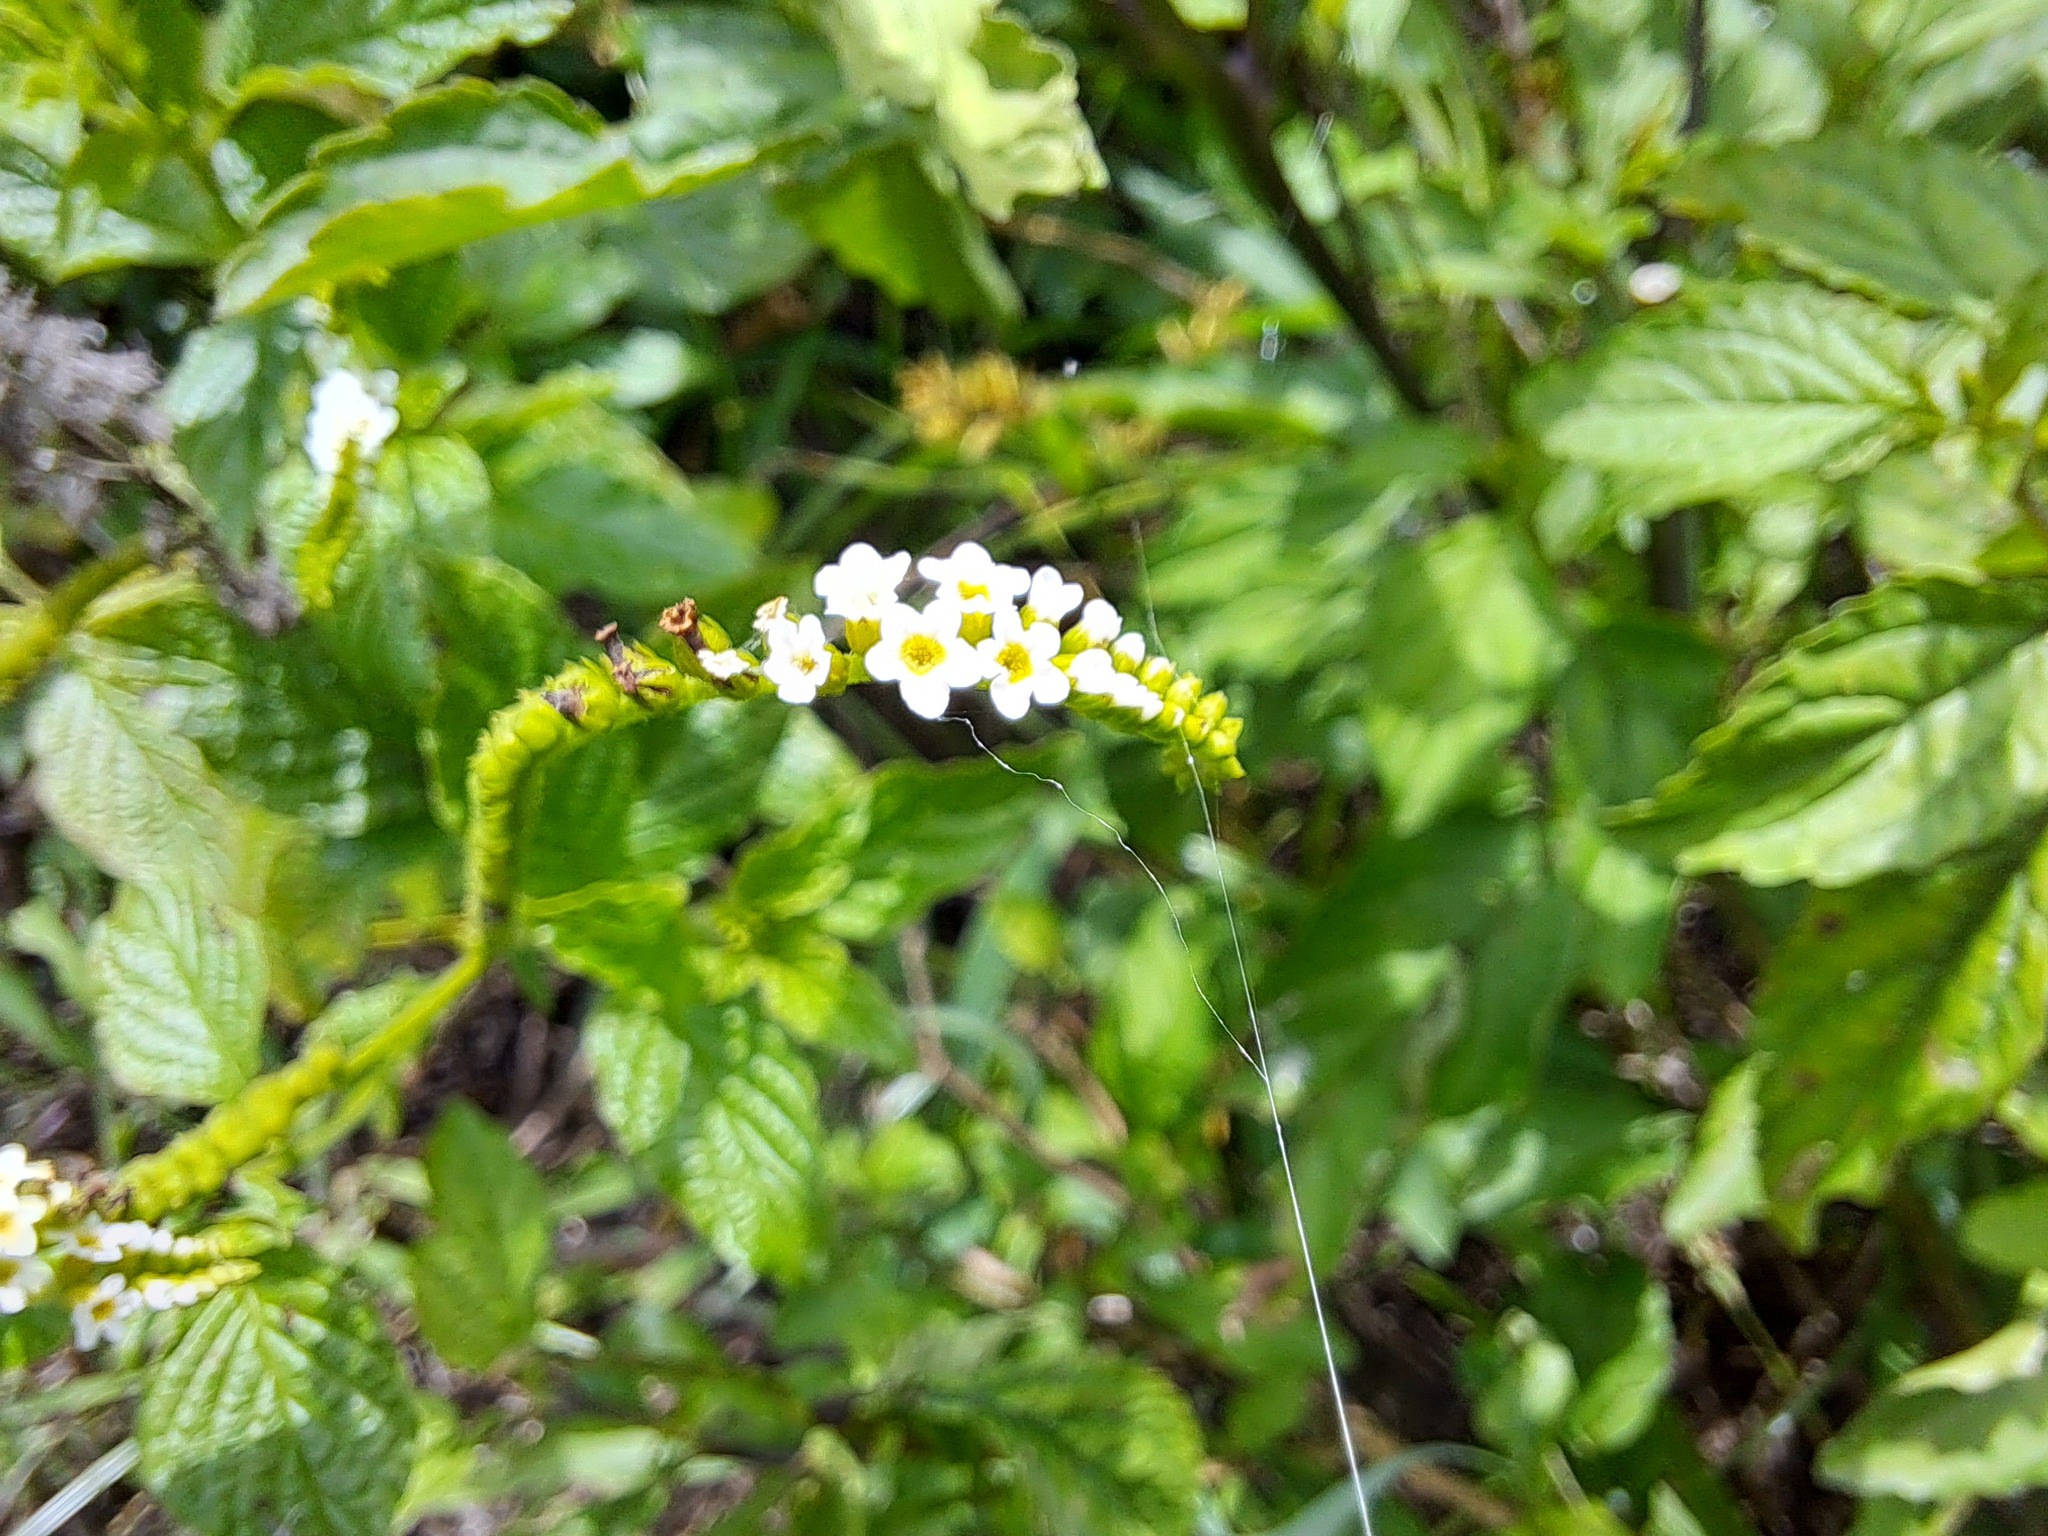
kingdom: Plantae
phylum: Tracheophyta
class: Magnoliopsida
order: Boraginales
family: Heliotropiaceae
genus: Heliotropium
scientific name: Heliotropium angiospermum
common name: Eye bright
